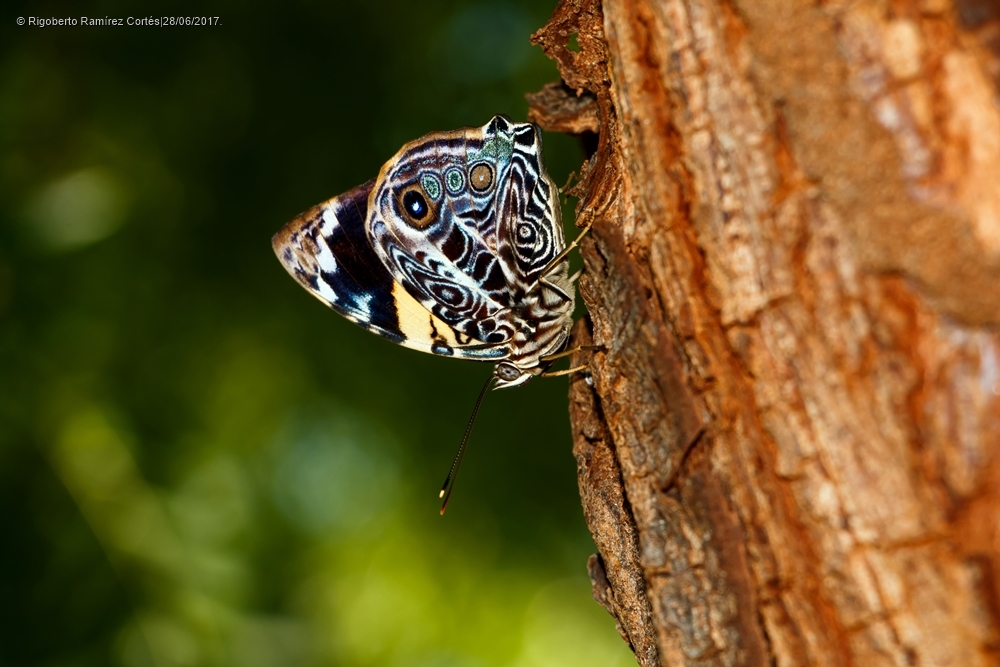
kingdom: Animalia
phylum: Arthropoda
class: Insecta
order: Lepidoptera
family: Nymphalidae
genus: Smyrna
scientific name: Smyrna blomfildia
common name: Blomfild's beauty
